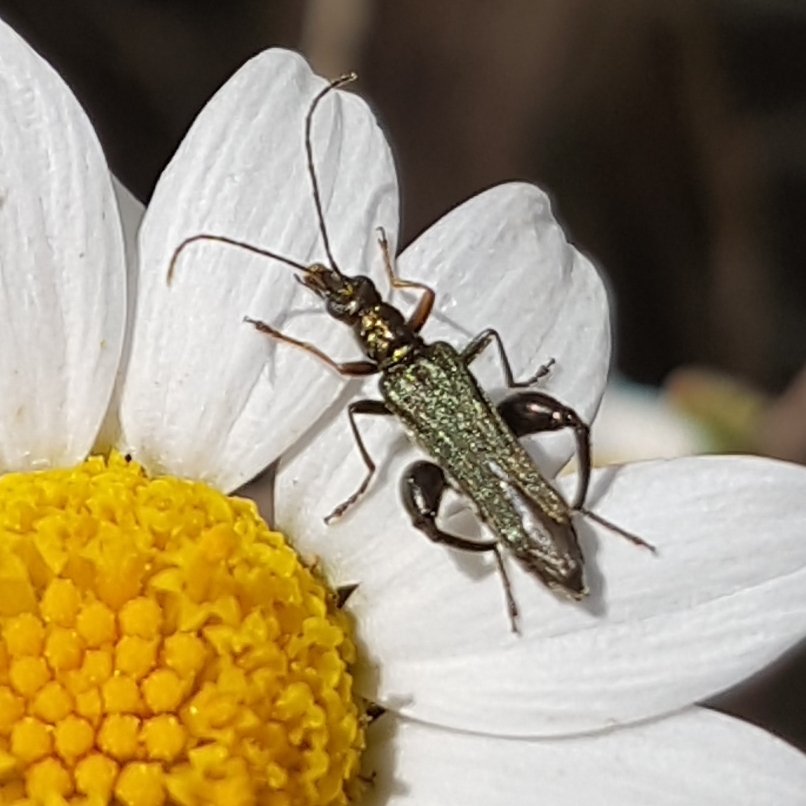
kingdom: Animalia
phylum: Arthropoda
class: Insecta
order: Coleoptera
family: Oedemeridae
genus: Oedemera
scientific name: Oedemera flavipes
